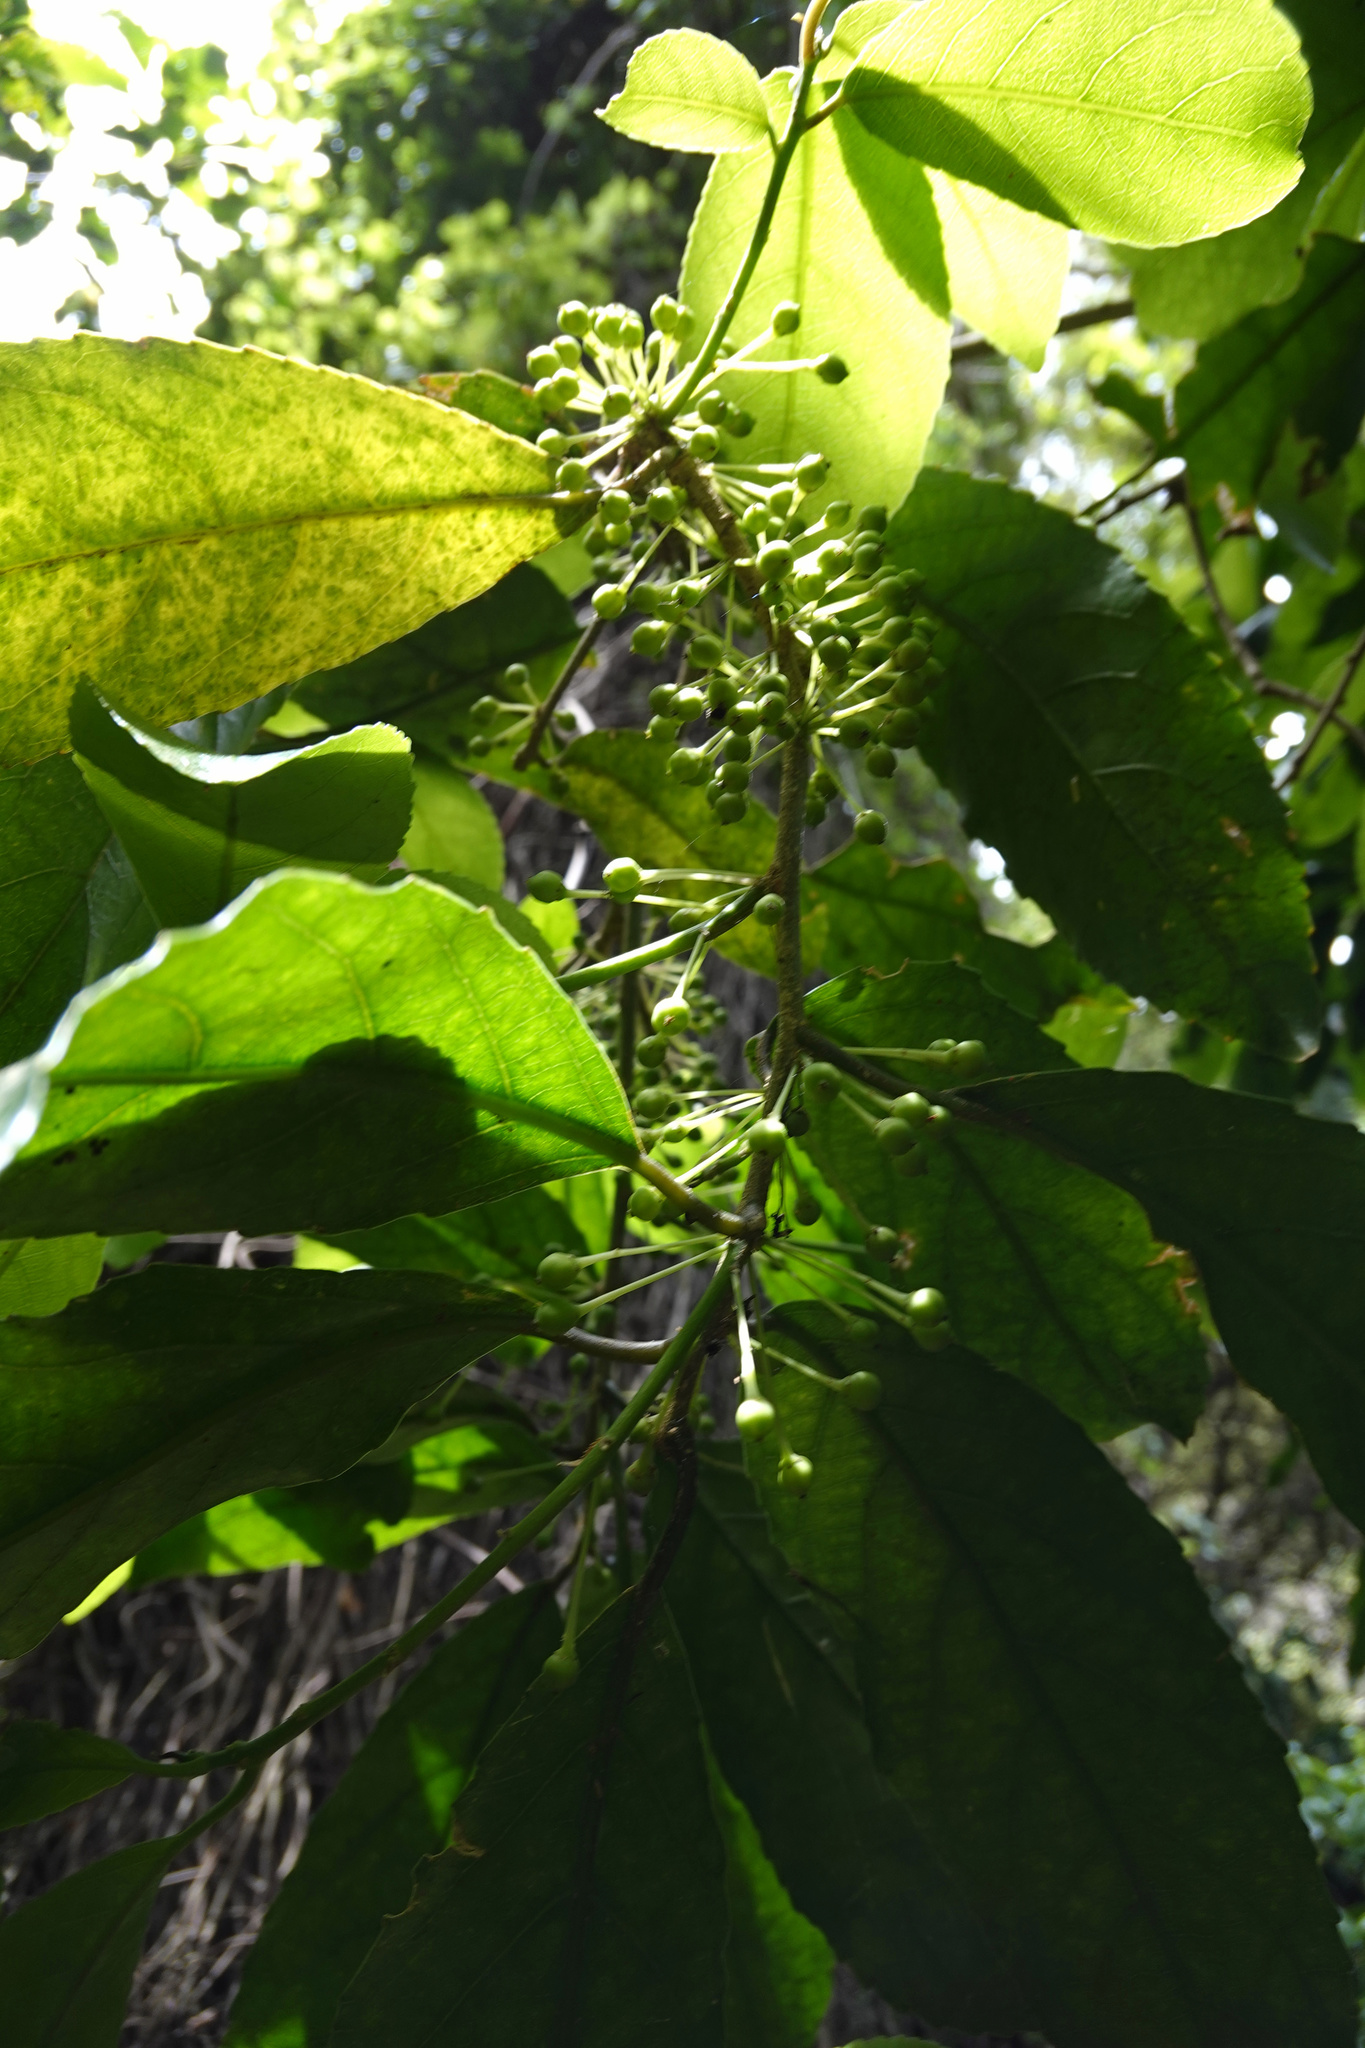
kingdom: Plantae
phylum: Tracheophyta
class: Magnoliopsida
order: Malpighiales
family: Violaceae
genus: Melicytus
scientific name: Melicytus ramiflorus
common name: Mahoe
